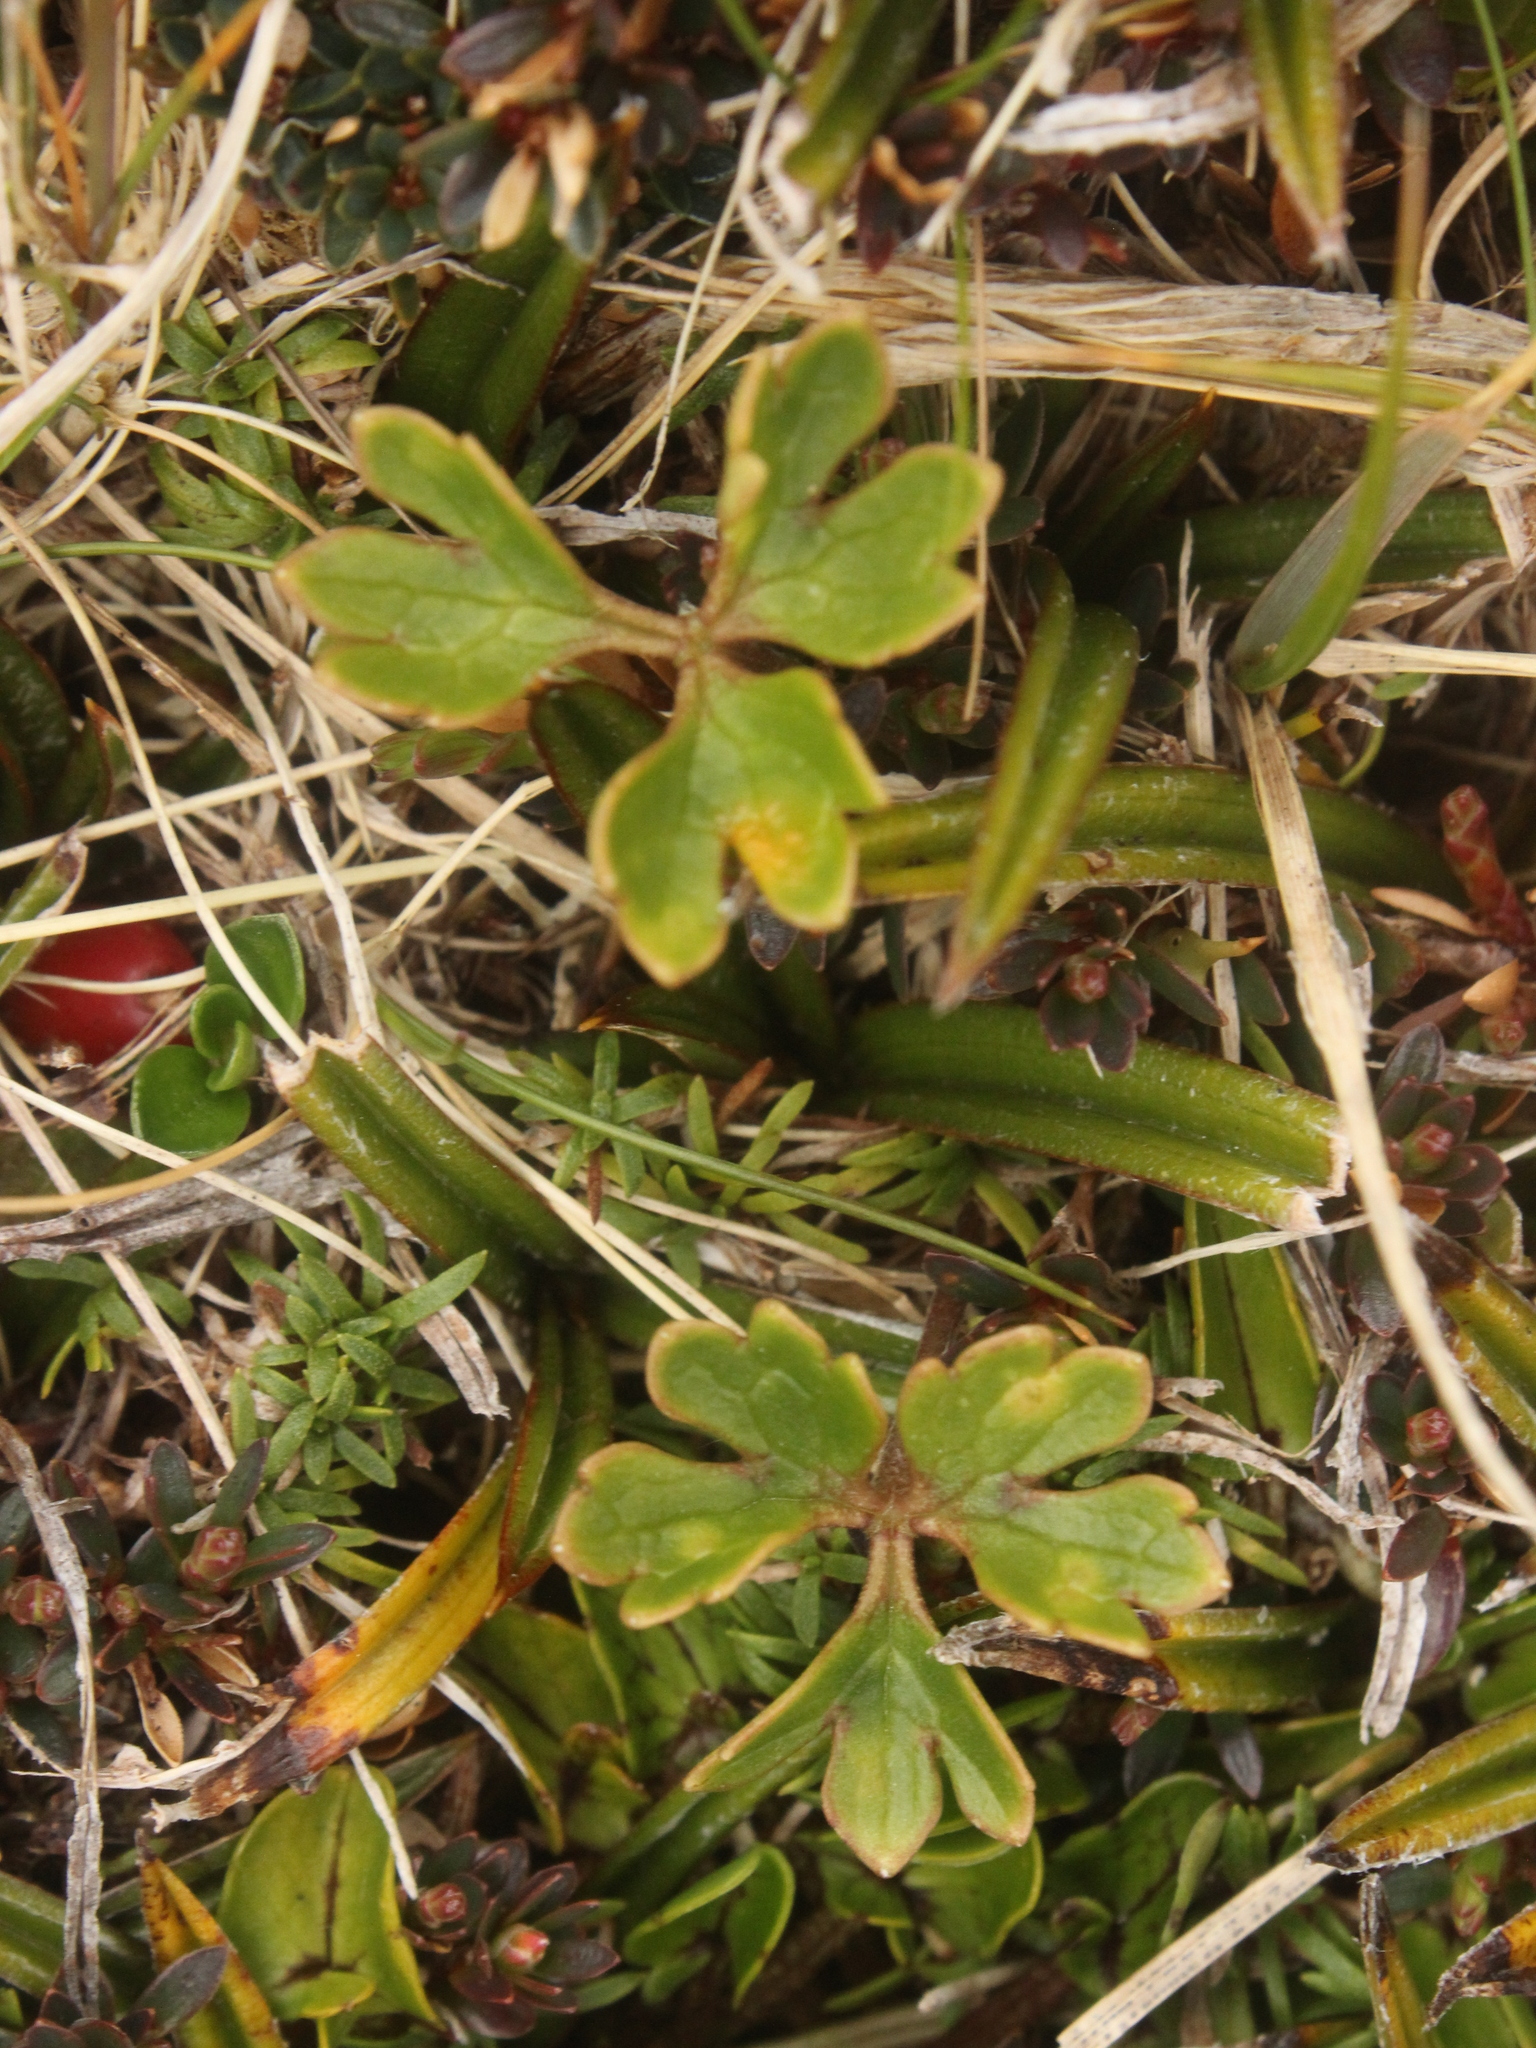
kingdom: Plantae
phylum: Tracheophyta
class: Magnoliopsida
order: Ranunculales
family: Ranunculaceae
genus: Ranunculus
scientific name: Ranunculus verticillatus
